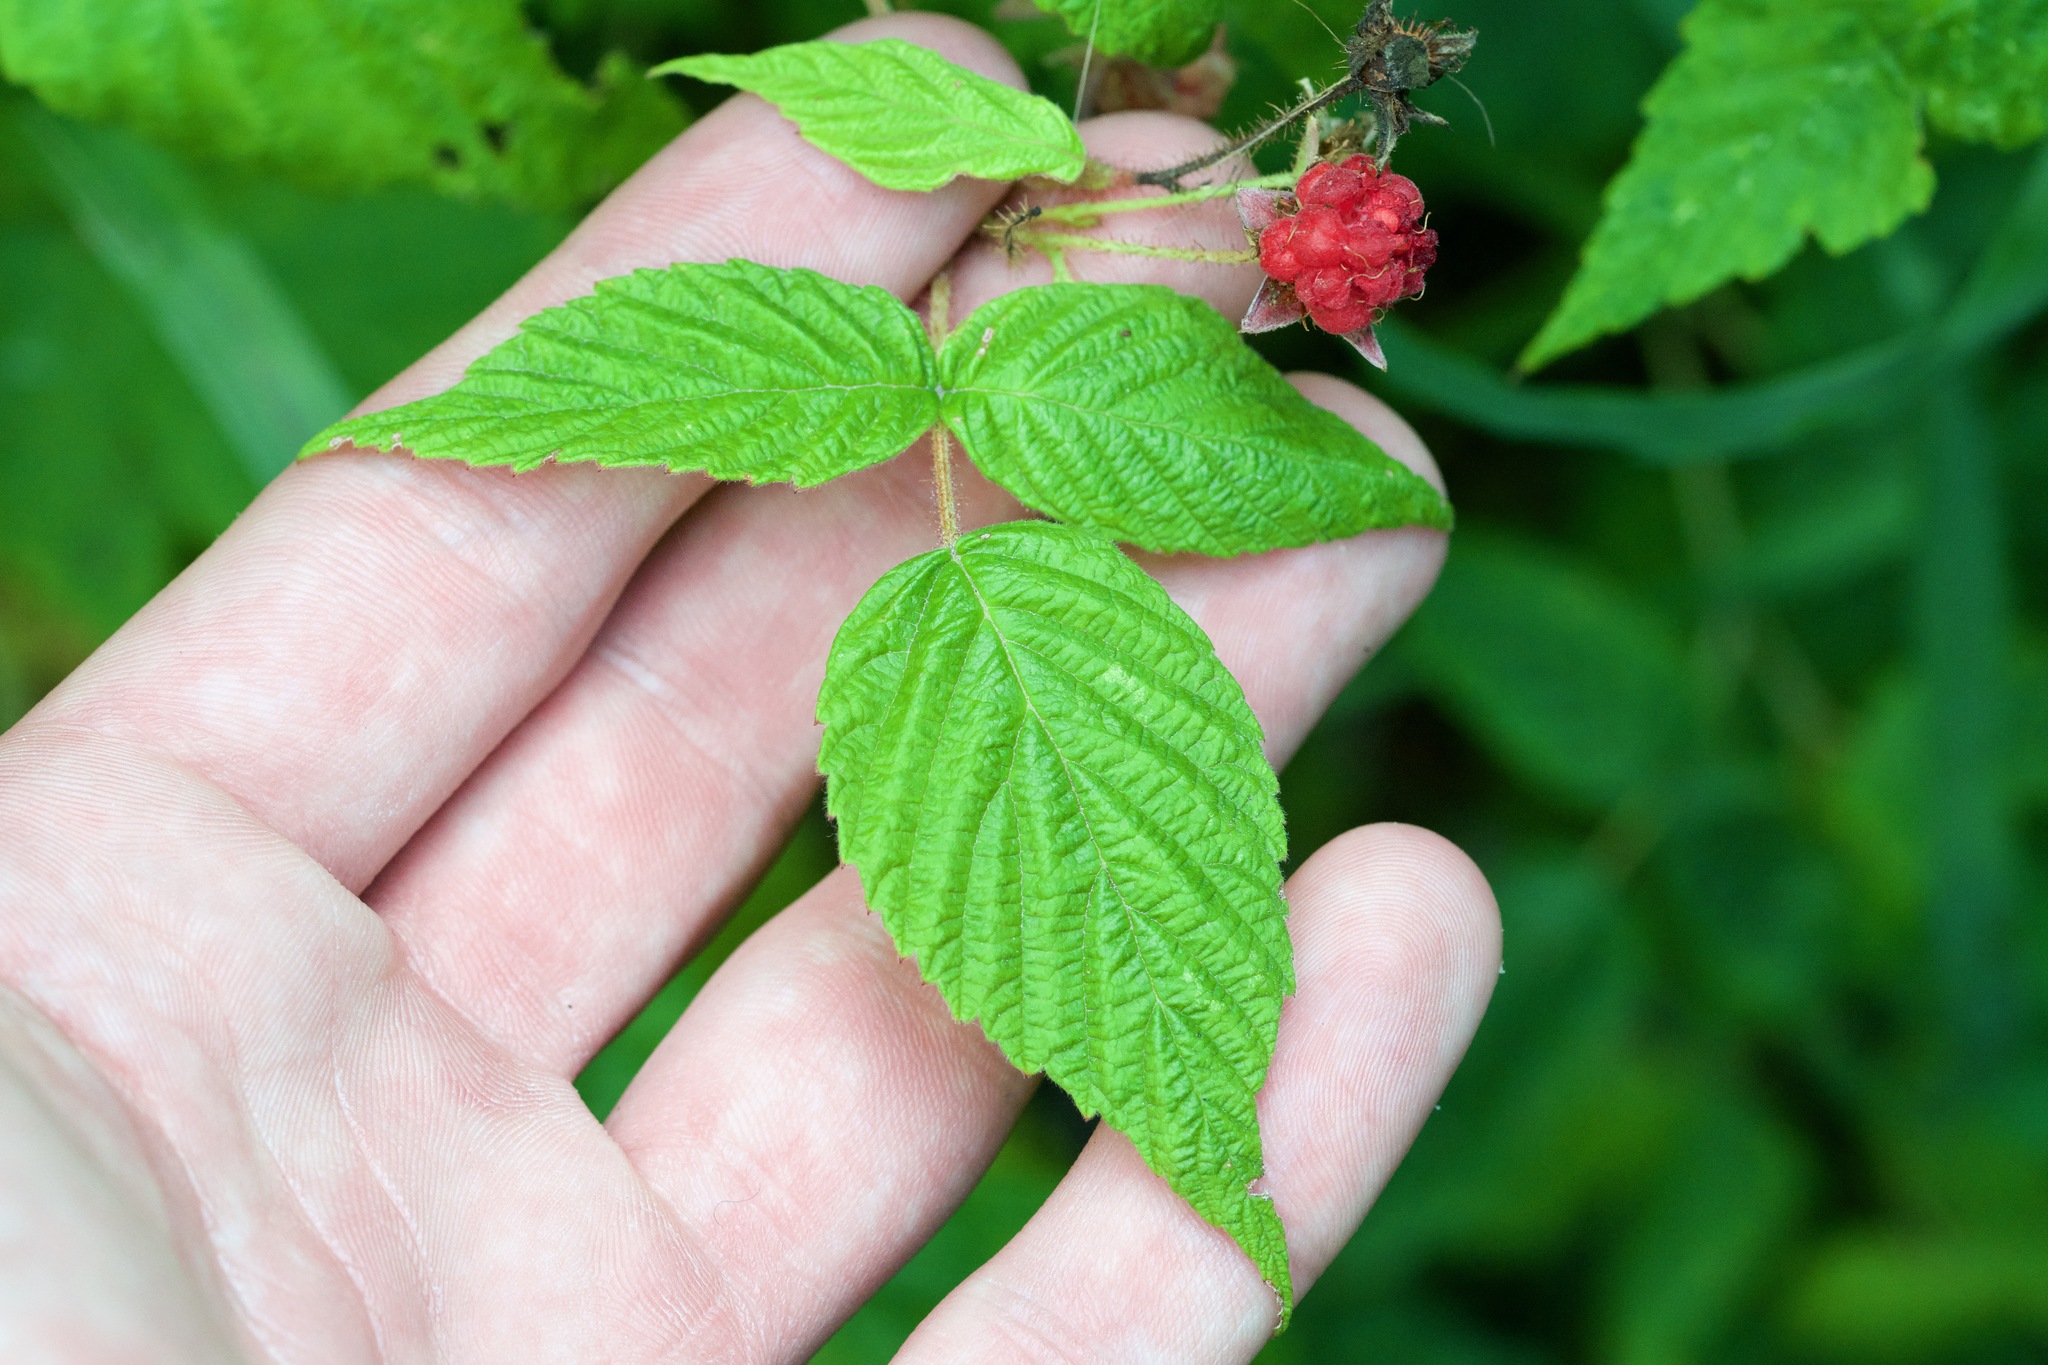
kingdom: Plantae
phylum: Tracheophyta
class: Magnoliopsida
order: Rosales
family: Rosaceae
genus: Rubus
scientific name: Rubus idaeus
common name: Raspberry
